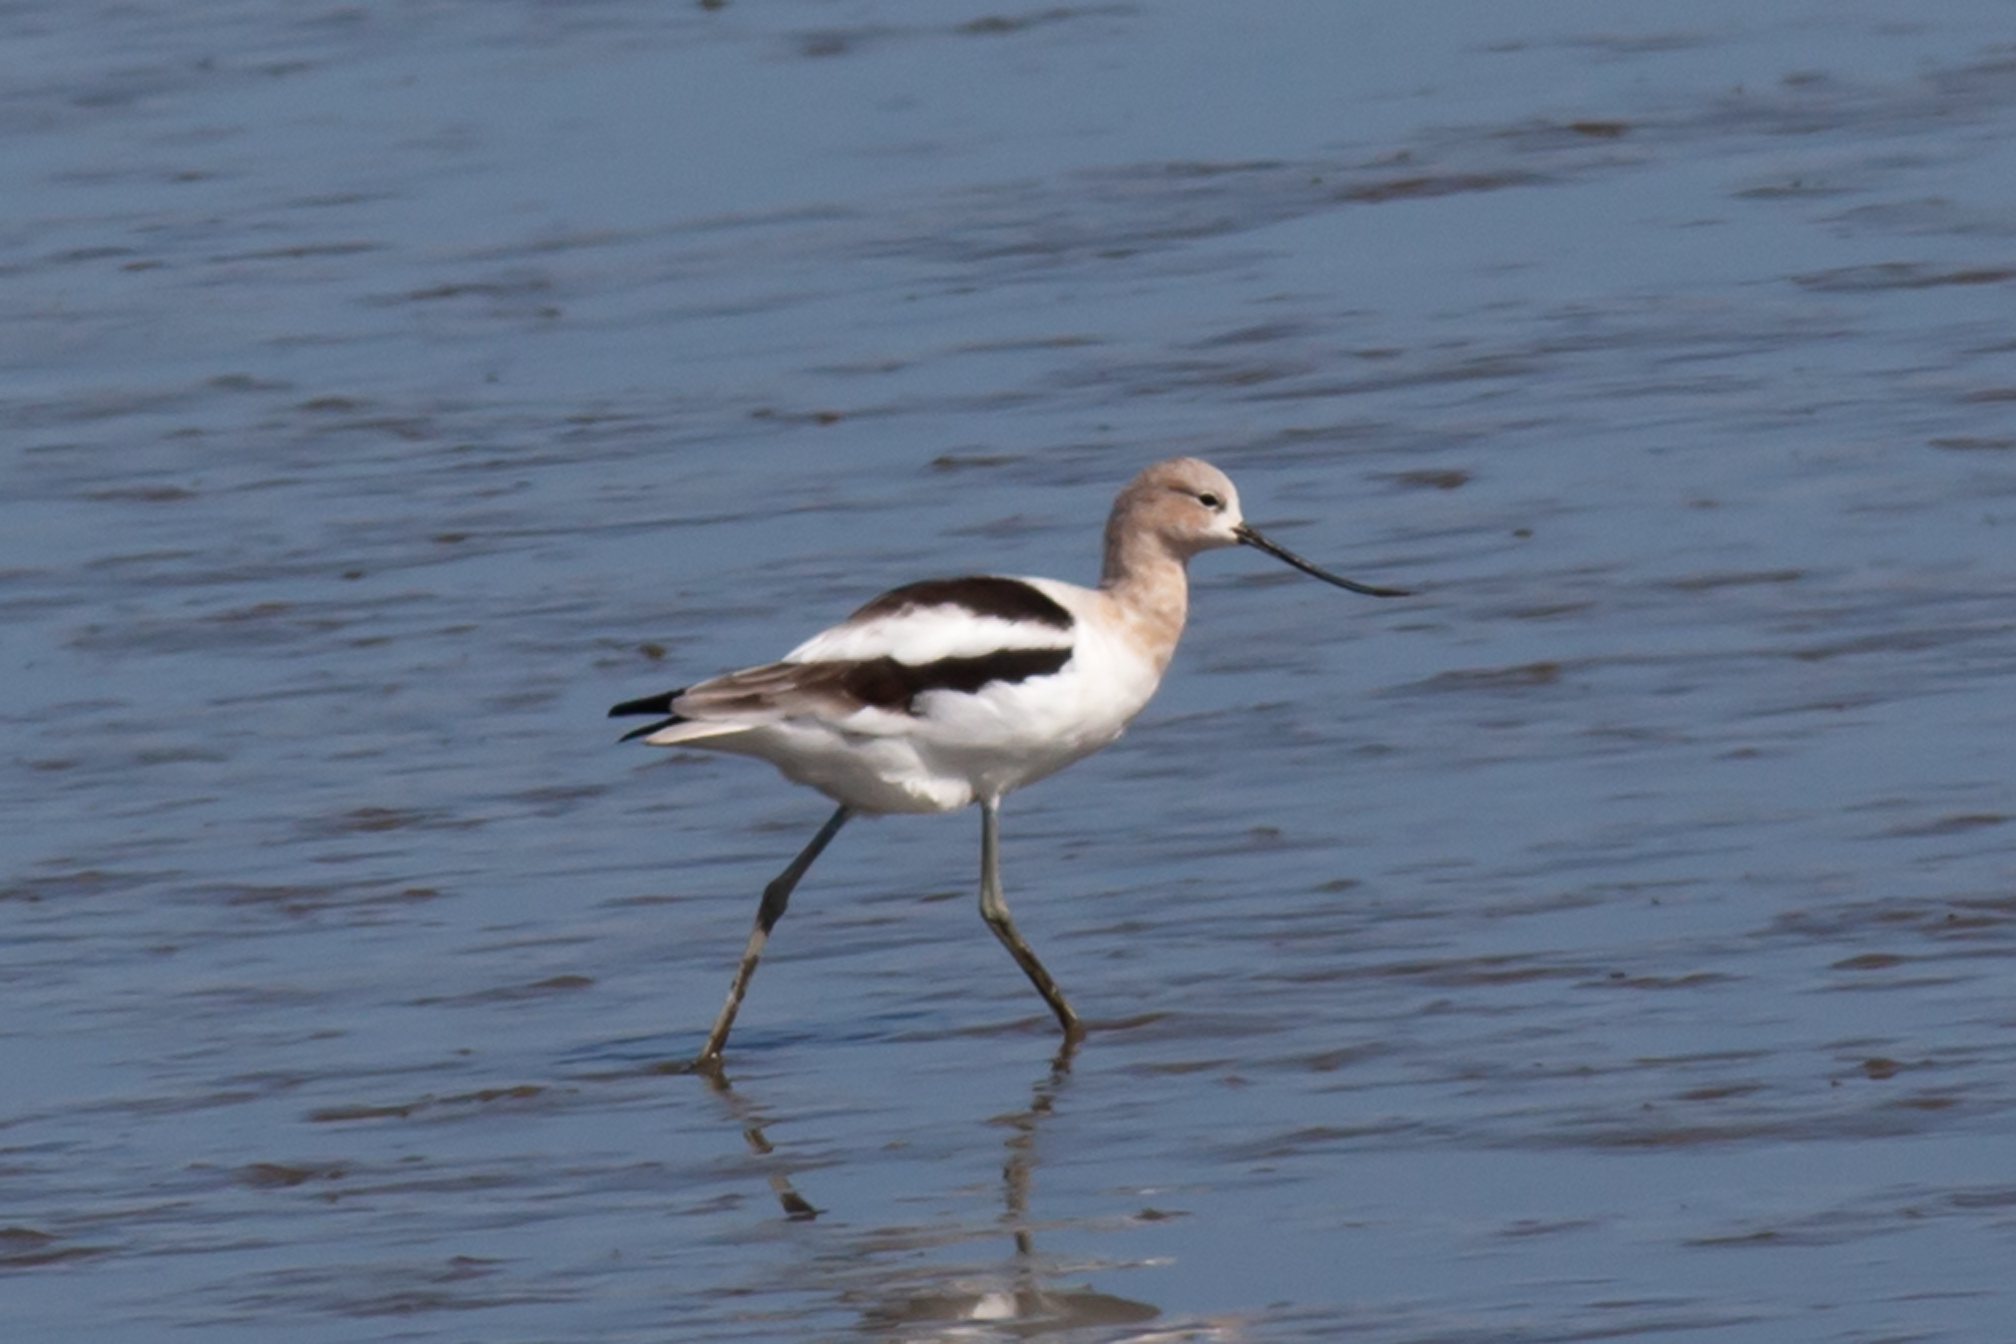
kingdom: Animalia
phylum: Chordata
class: Aves
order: Charadriiformes
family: Recurvirostridae
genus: Recurvirostra
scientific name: Recurvirostra americana
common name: American avocet
